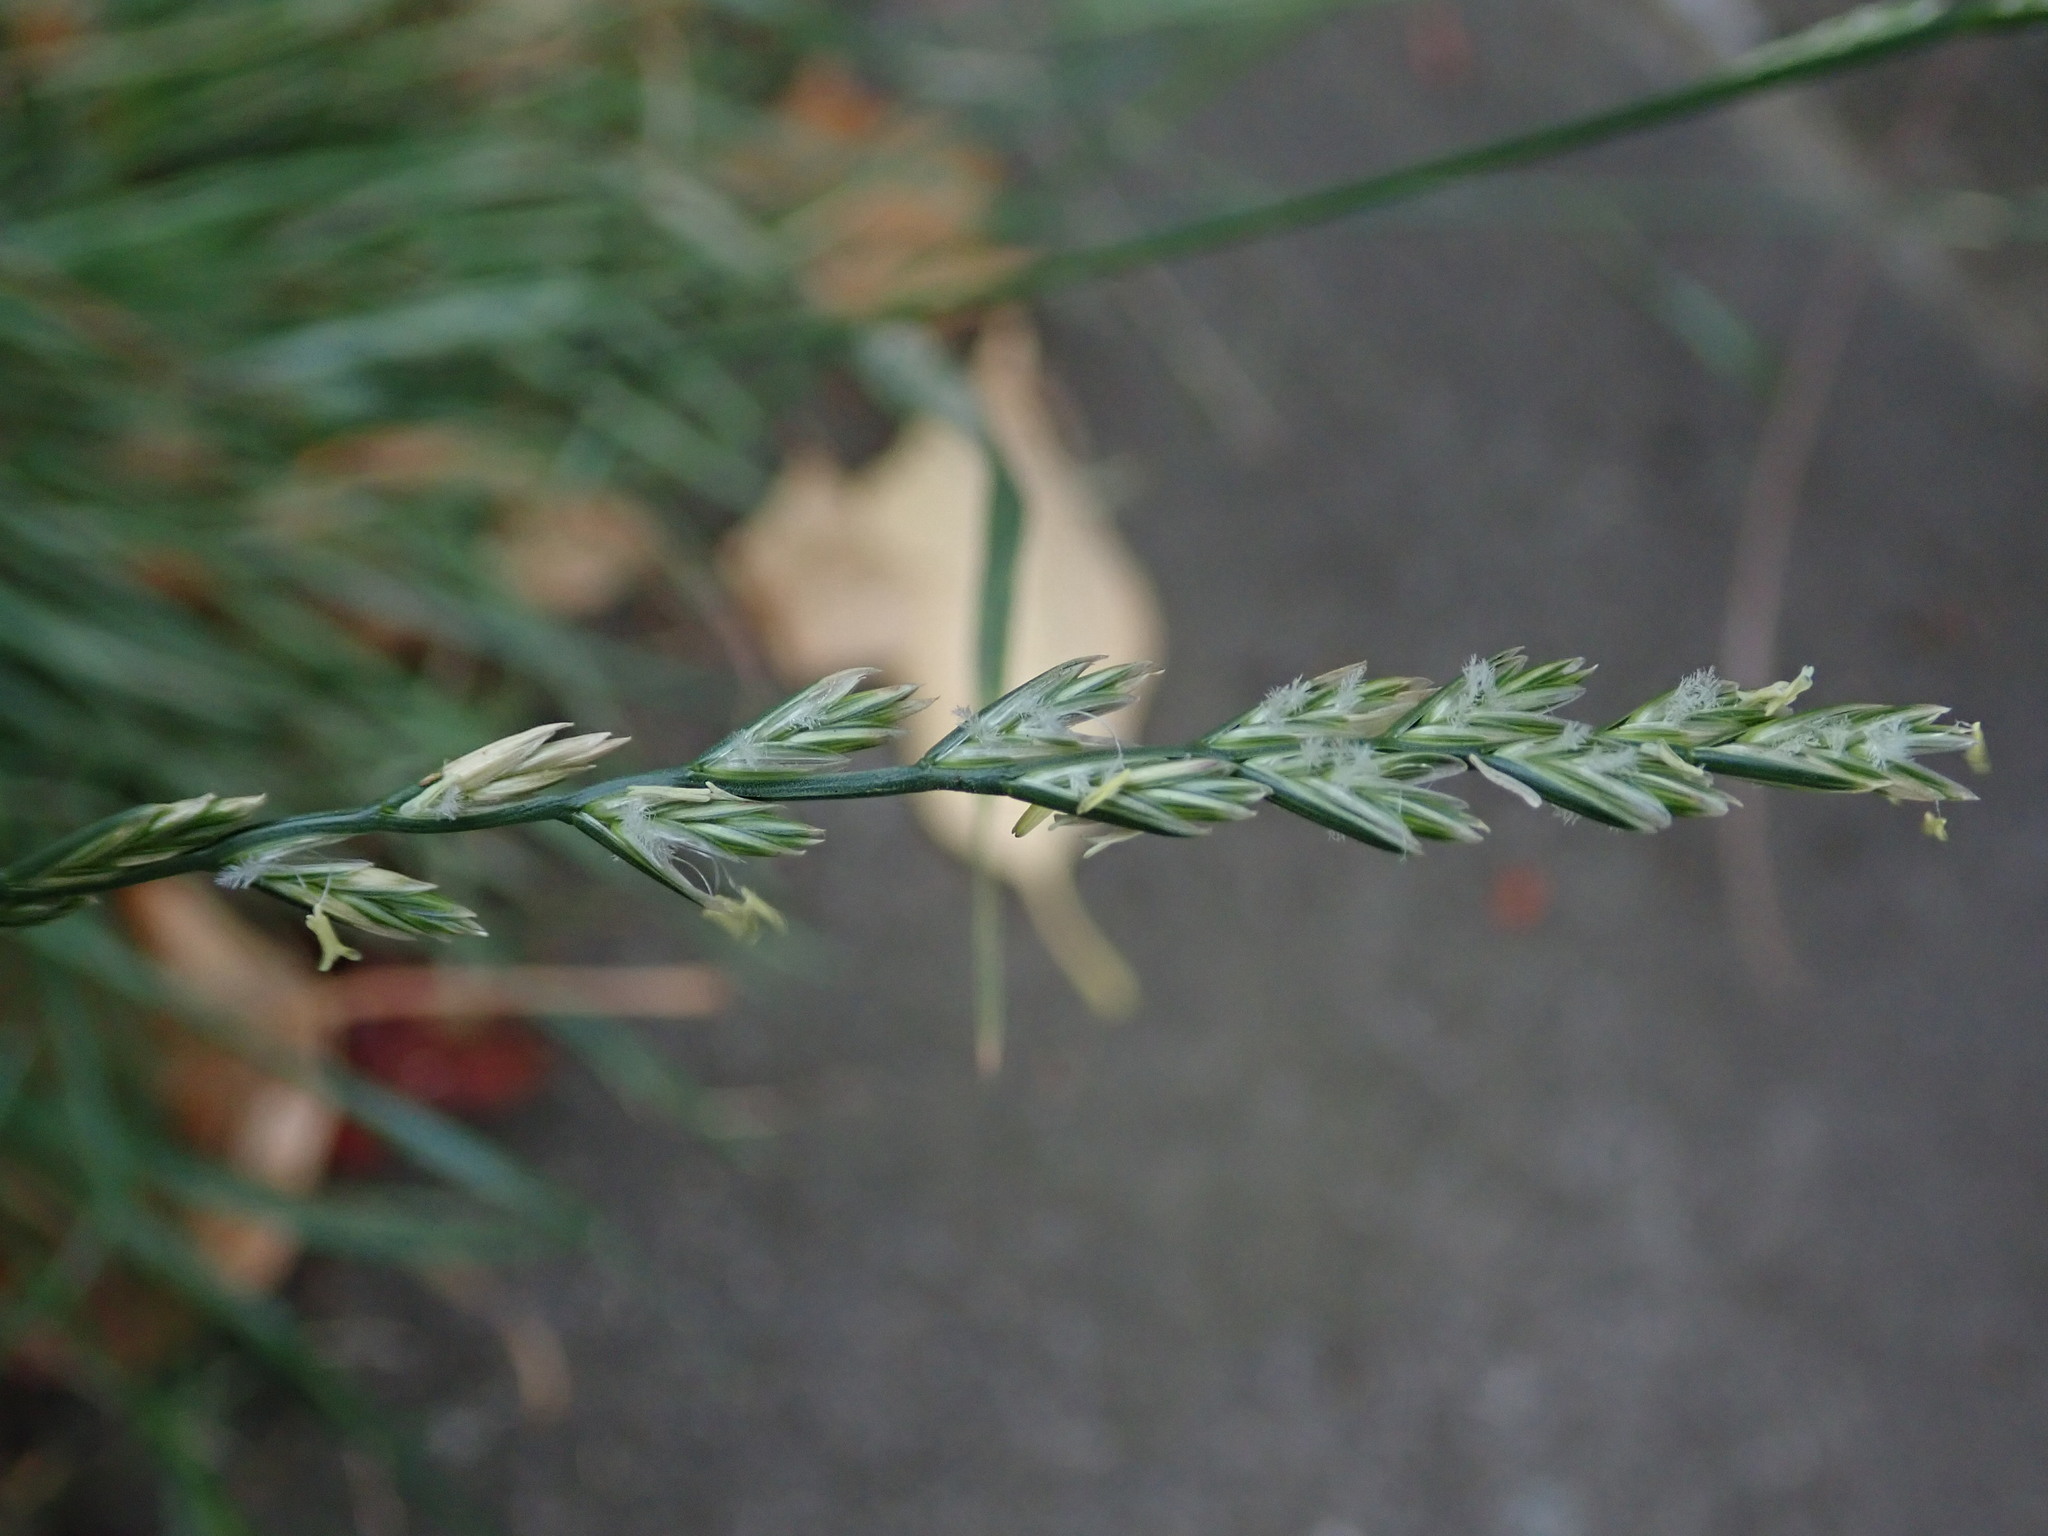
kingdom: Plantae
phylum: Tracheophyta
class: Liliopsida
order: Poales
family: Poaceae
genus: Lolium
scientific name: Lolium perenne
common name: Perennial ryegrass
